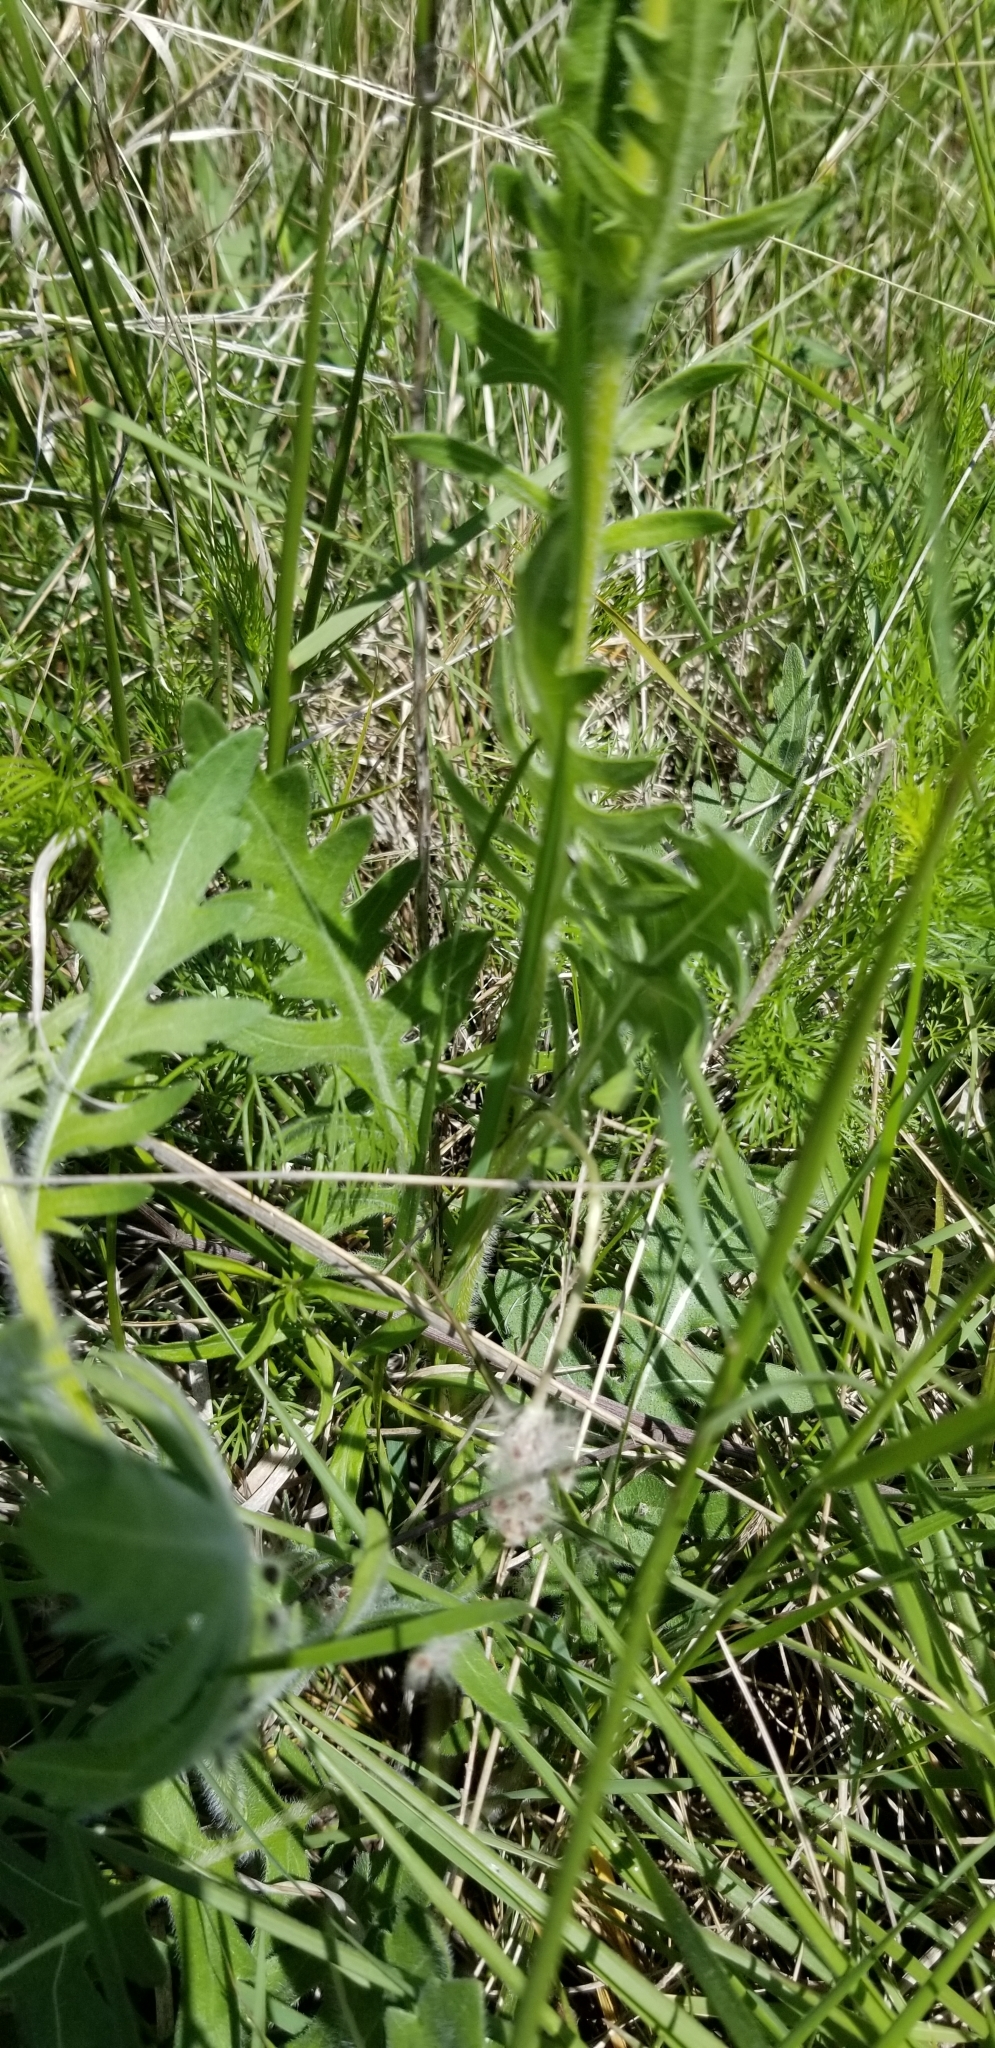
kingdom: Plantae
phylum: Tracheophyta
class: Magnoliopsida
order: Asterales
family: Asteraceae
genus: Engelmannia
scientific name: Engelmannia peristenia
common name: Engelmann's daisy
